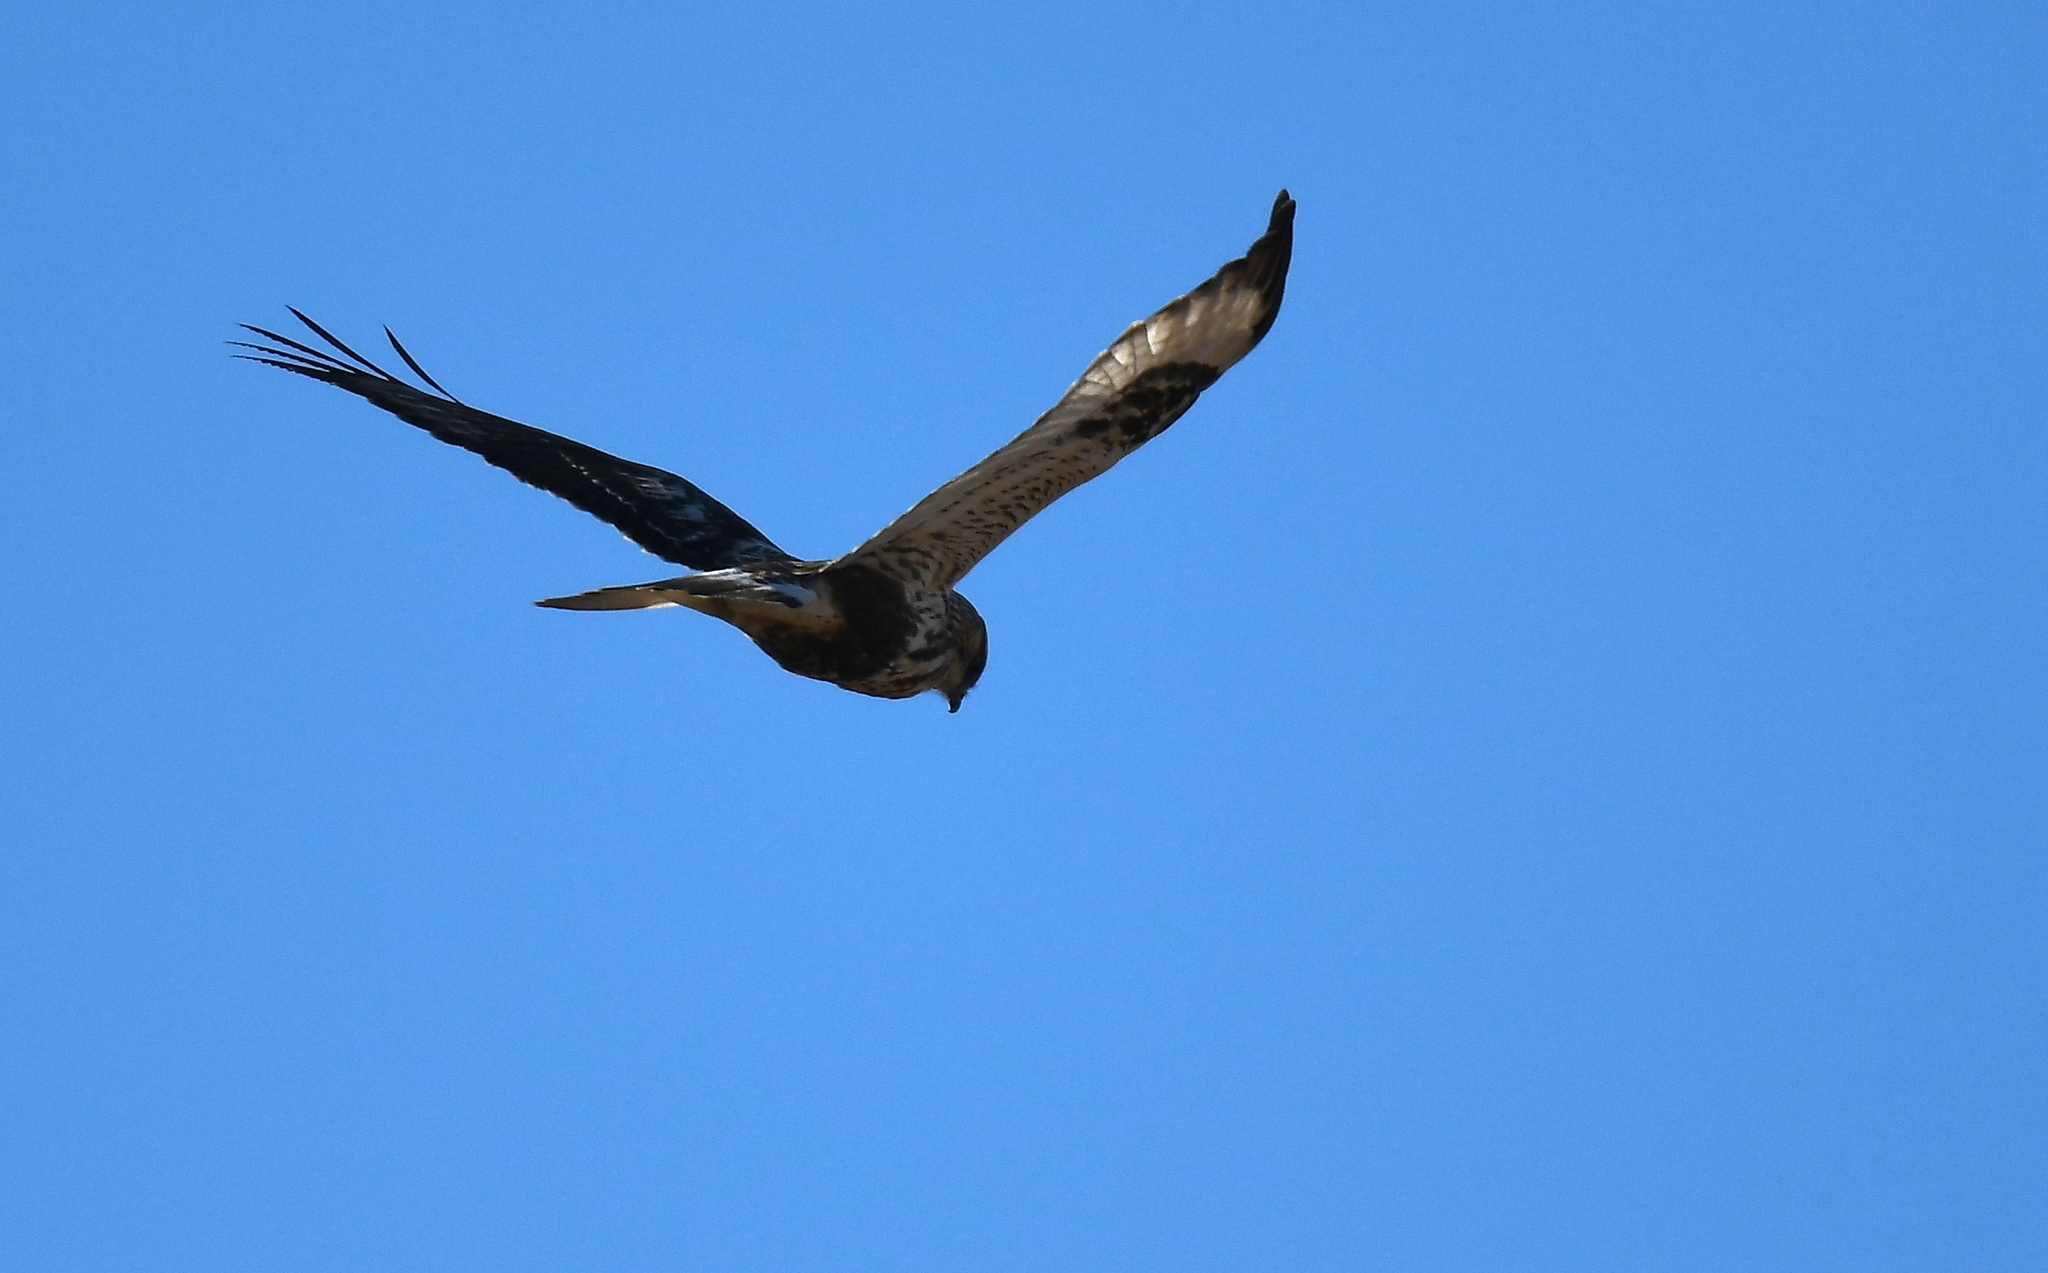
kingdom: Animalia
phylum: Chordata
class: Aves
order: Accipitriformes
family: Accipitridae
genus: Buteo
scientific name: Buteo lagopus
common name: Rough-legged buzzard
